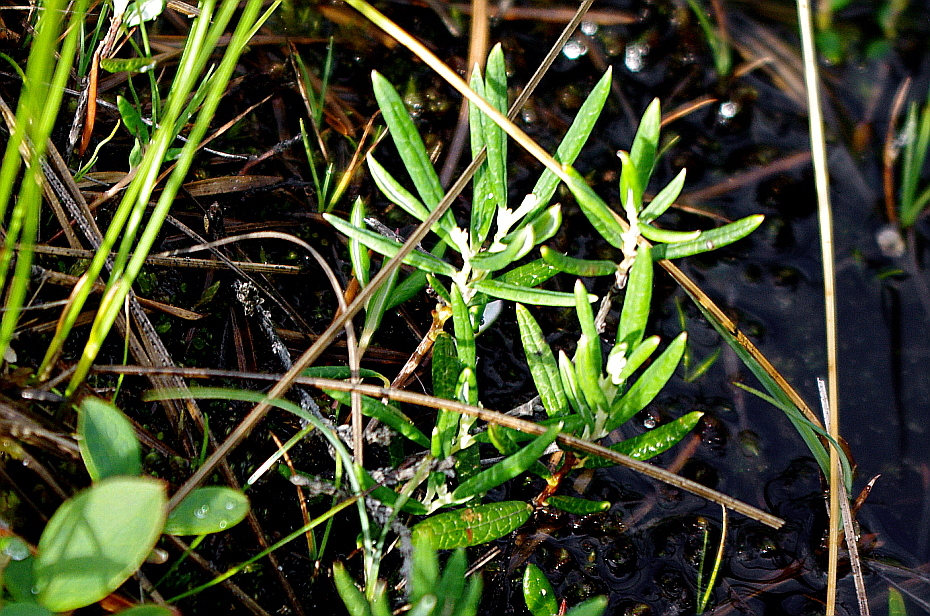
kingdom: Plantae
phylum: Tracheophyta
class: Magnoliopsida
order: Ericales
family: Ericaceae
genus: Andromeda
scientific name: Andromeda polifolia
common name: Bog-rosemary
